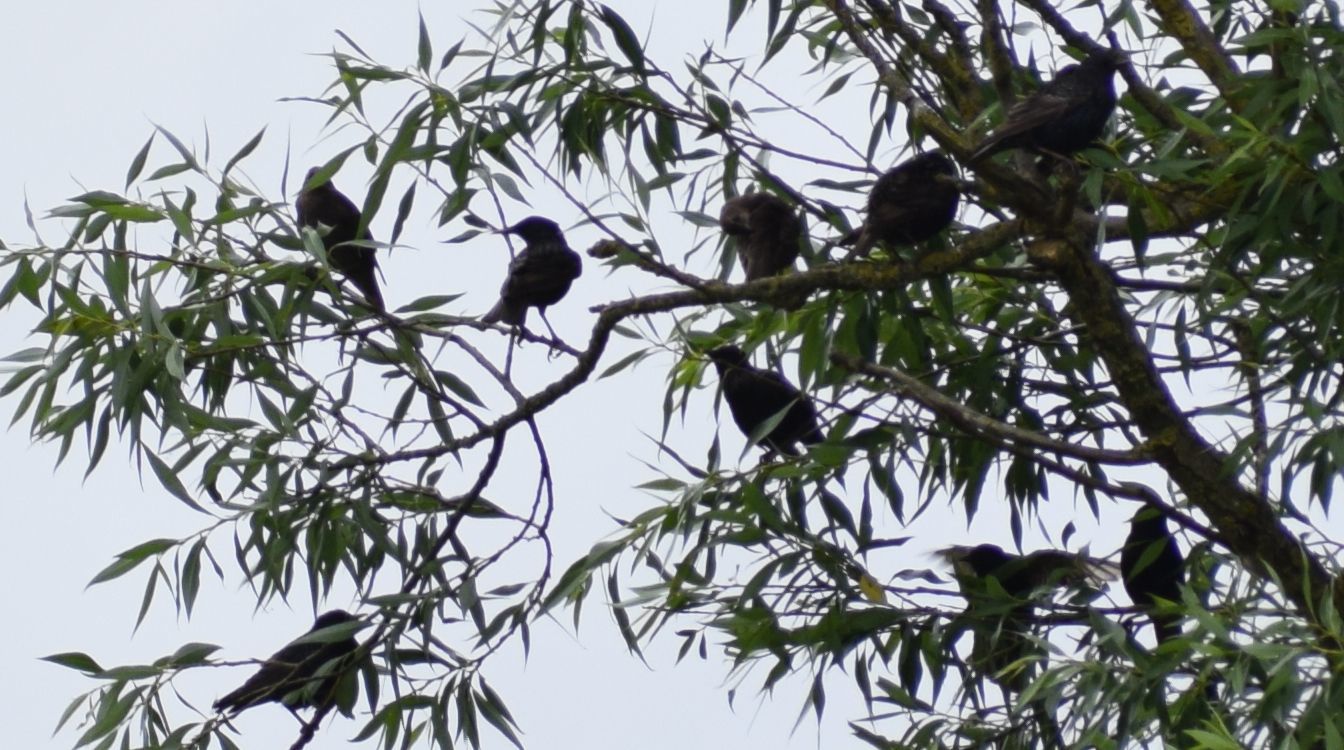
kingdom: Animalia
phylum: Chordata
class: Aves
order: Passeriformes
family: Sturnidae
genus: Sturnus
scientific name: Sturnus vulgaris
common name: Common starling
